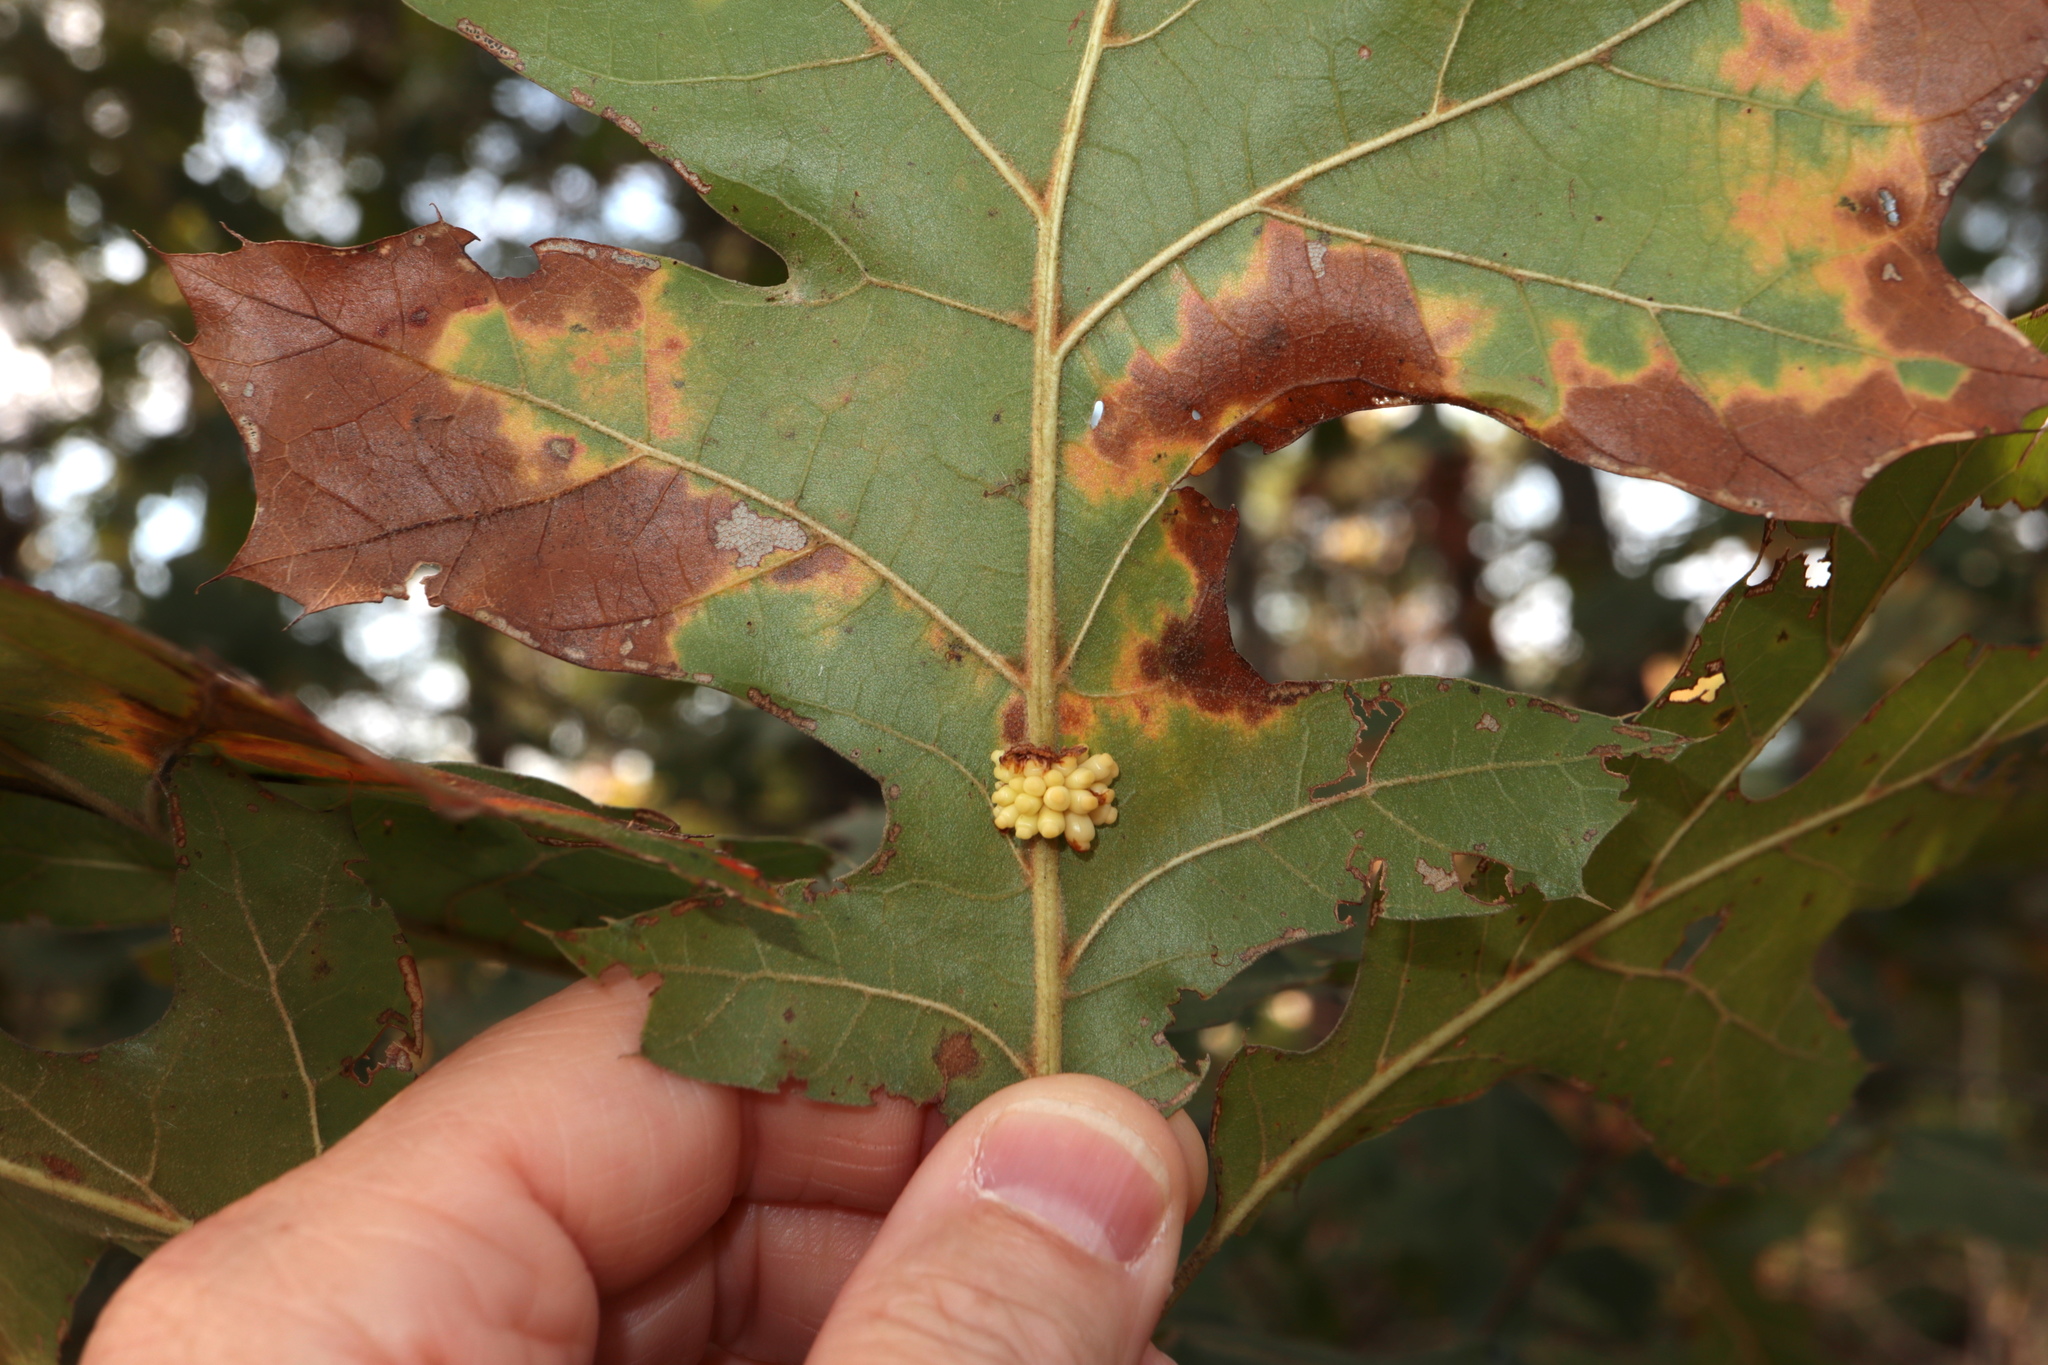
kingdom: Animalia
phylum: Arthropoda
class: Insecta
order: Hymenoptera
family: Cynipidae
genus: Kokkocynips
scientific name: Kokkocynips decidua
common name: Oak wheat gall
